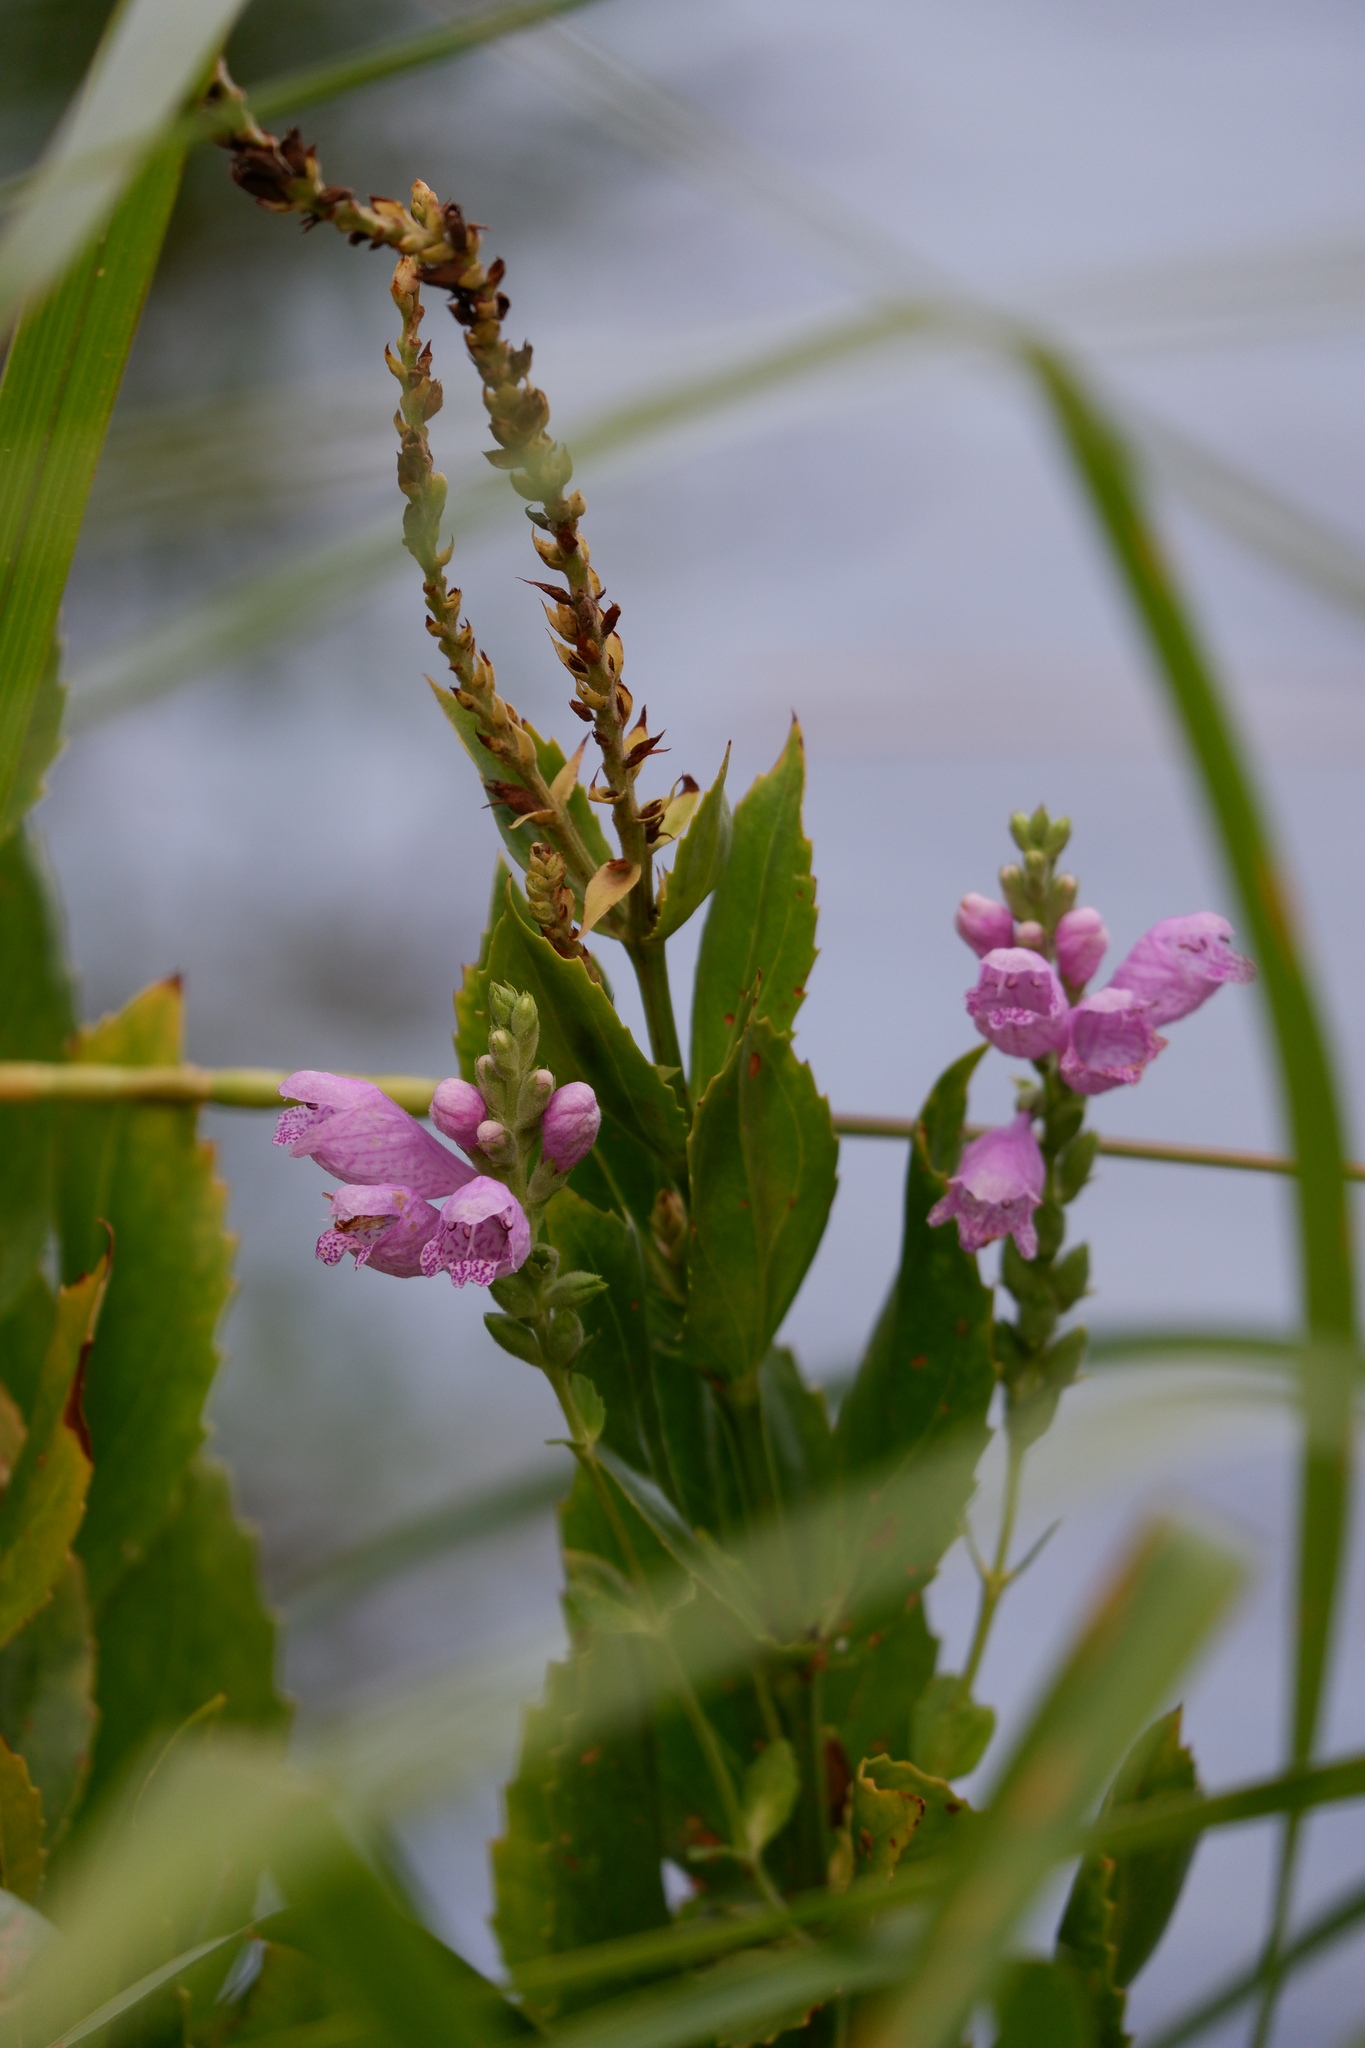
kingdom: Plantae
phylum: Tracheophyta
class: Magnoliopsida
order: Lamiales
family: Lamiaceae
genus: Physostegia
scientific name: Physostegia correllii
